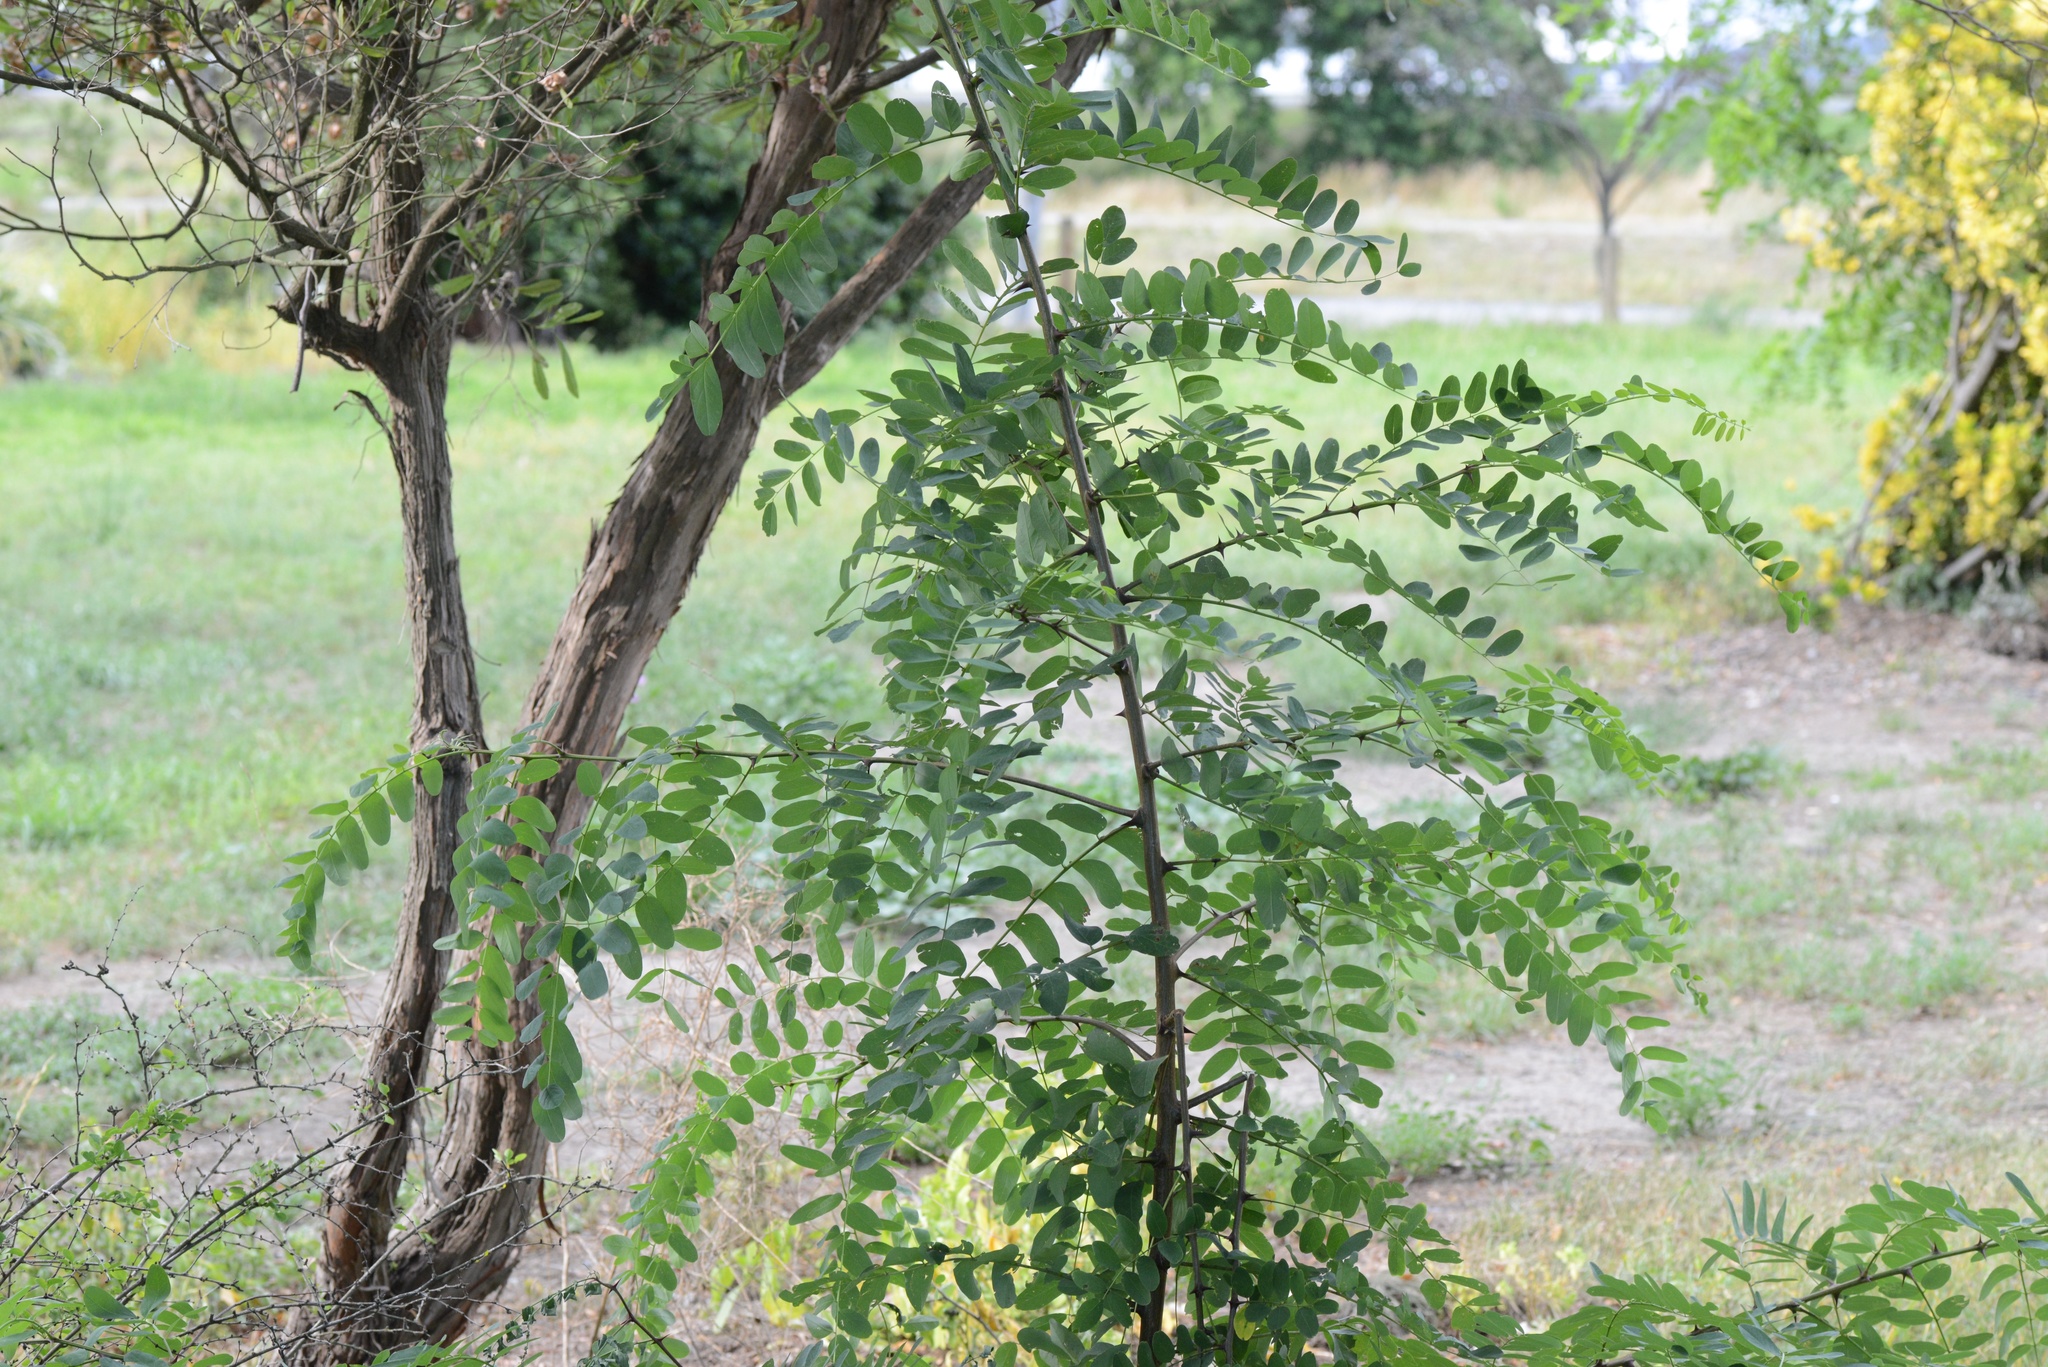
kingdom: Plantae
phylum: Tracheophyta
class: Magnoliopsida
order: Fabales
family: Fabaceae
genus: Robinia
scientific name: Robinia pseudoacacia
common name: Black locust
